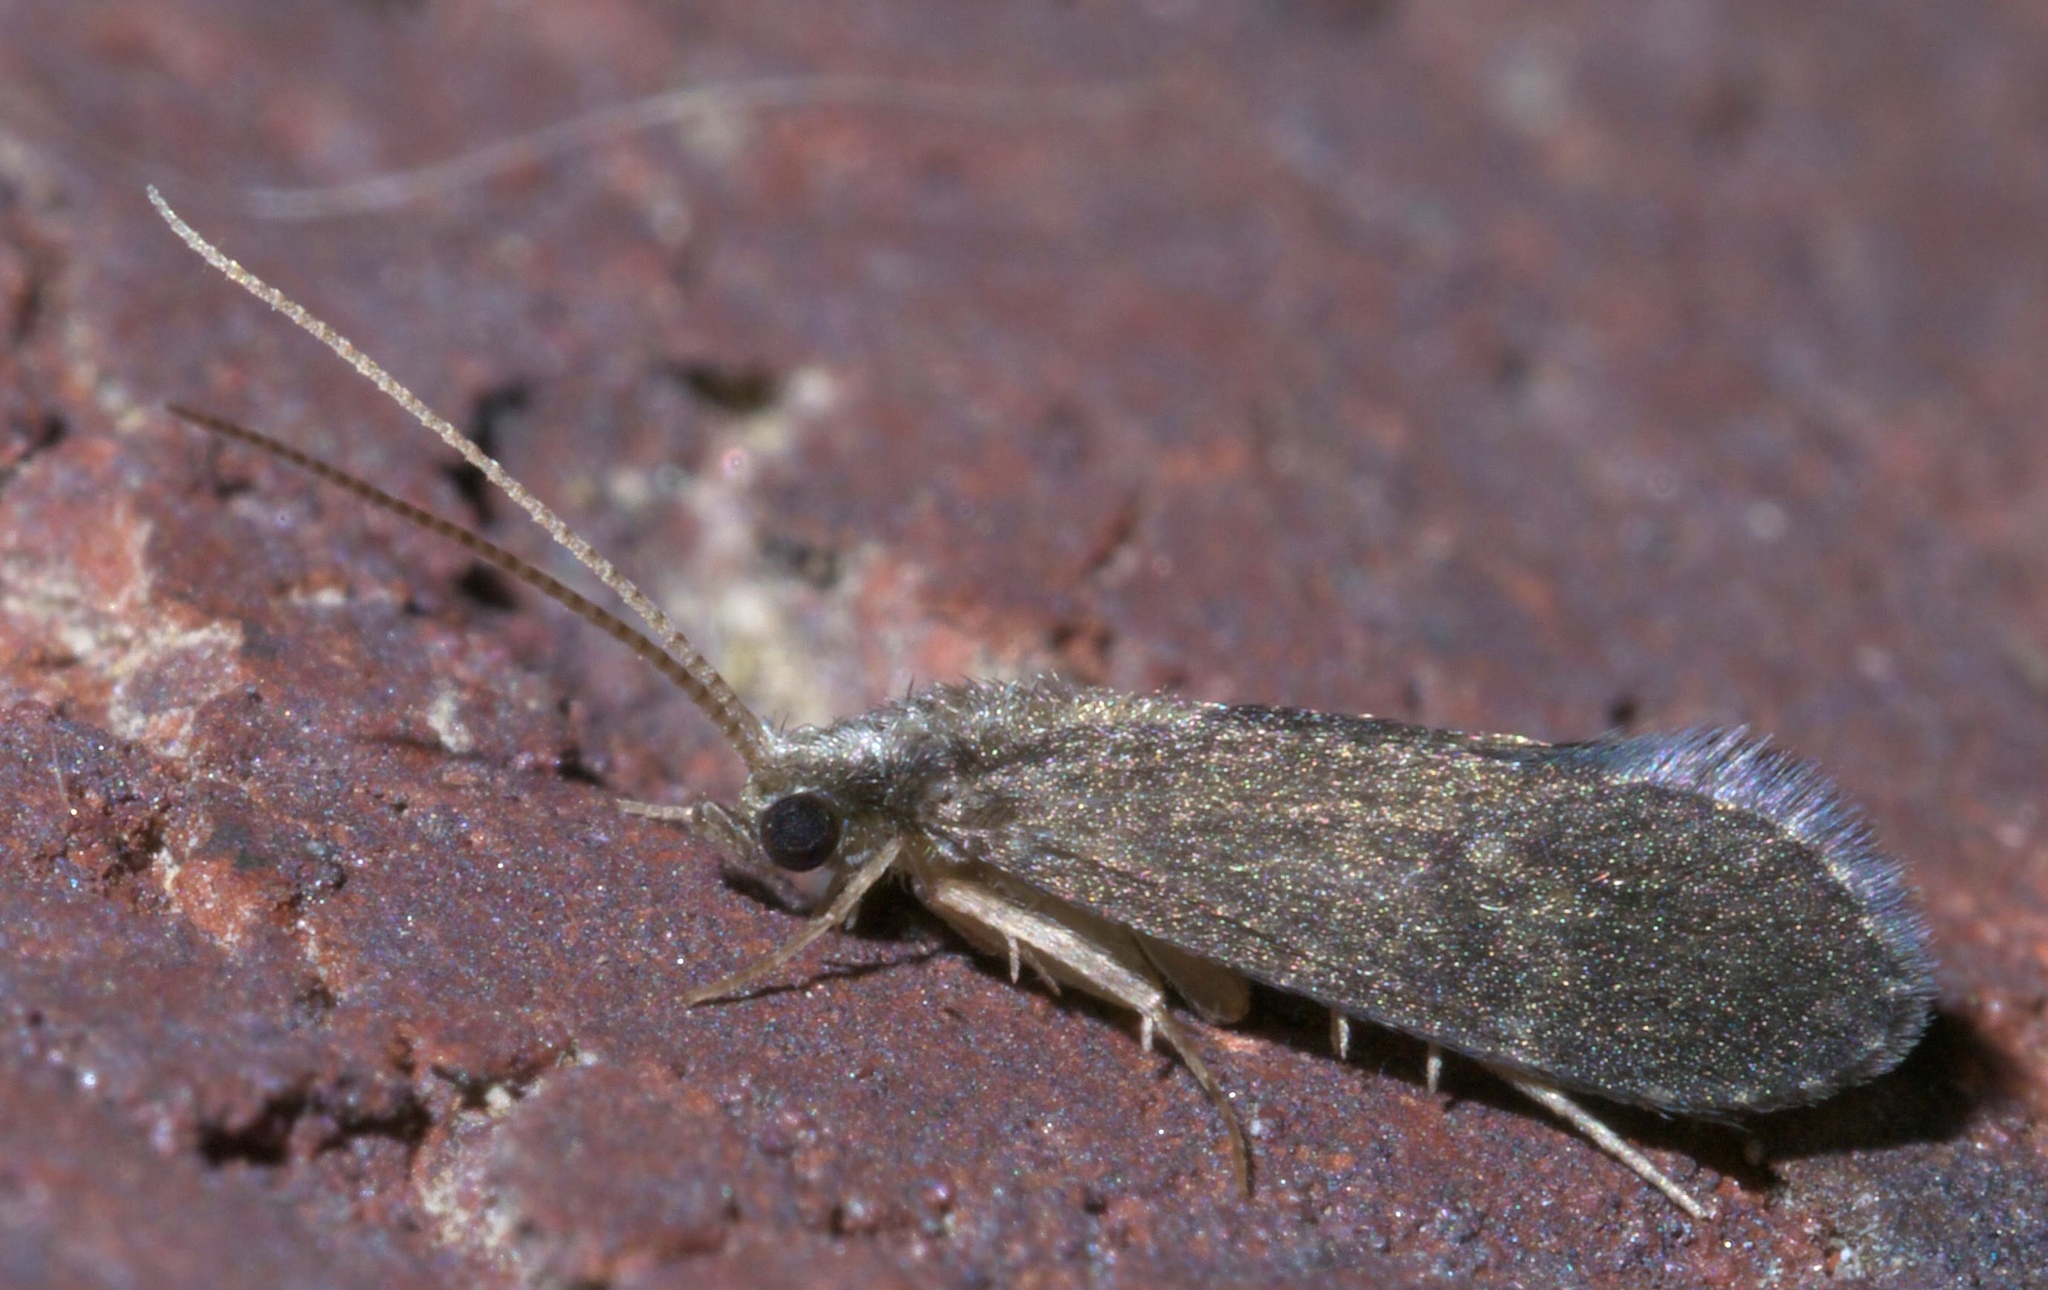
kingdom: Animalia
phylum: Arthropoda
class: Insecta
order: Trichoptera
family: Polycentropodidae
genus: Cyrnellus
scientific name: Cyrnellus fraternus
